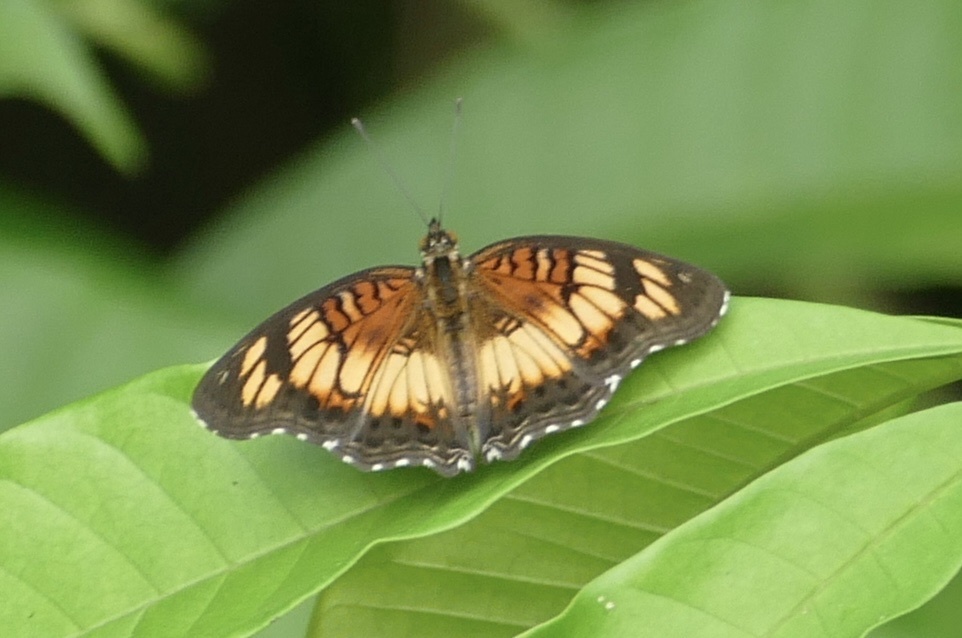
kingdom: Animalia
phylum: Arthropoda
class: Insecta
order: Lepidoptera
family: Nymphalidae
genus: Junonia
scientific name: Junonia sophia
